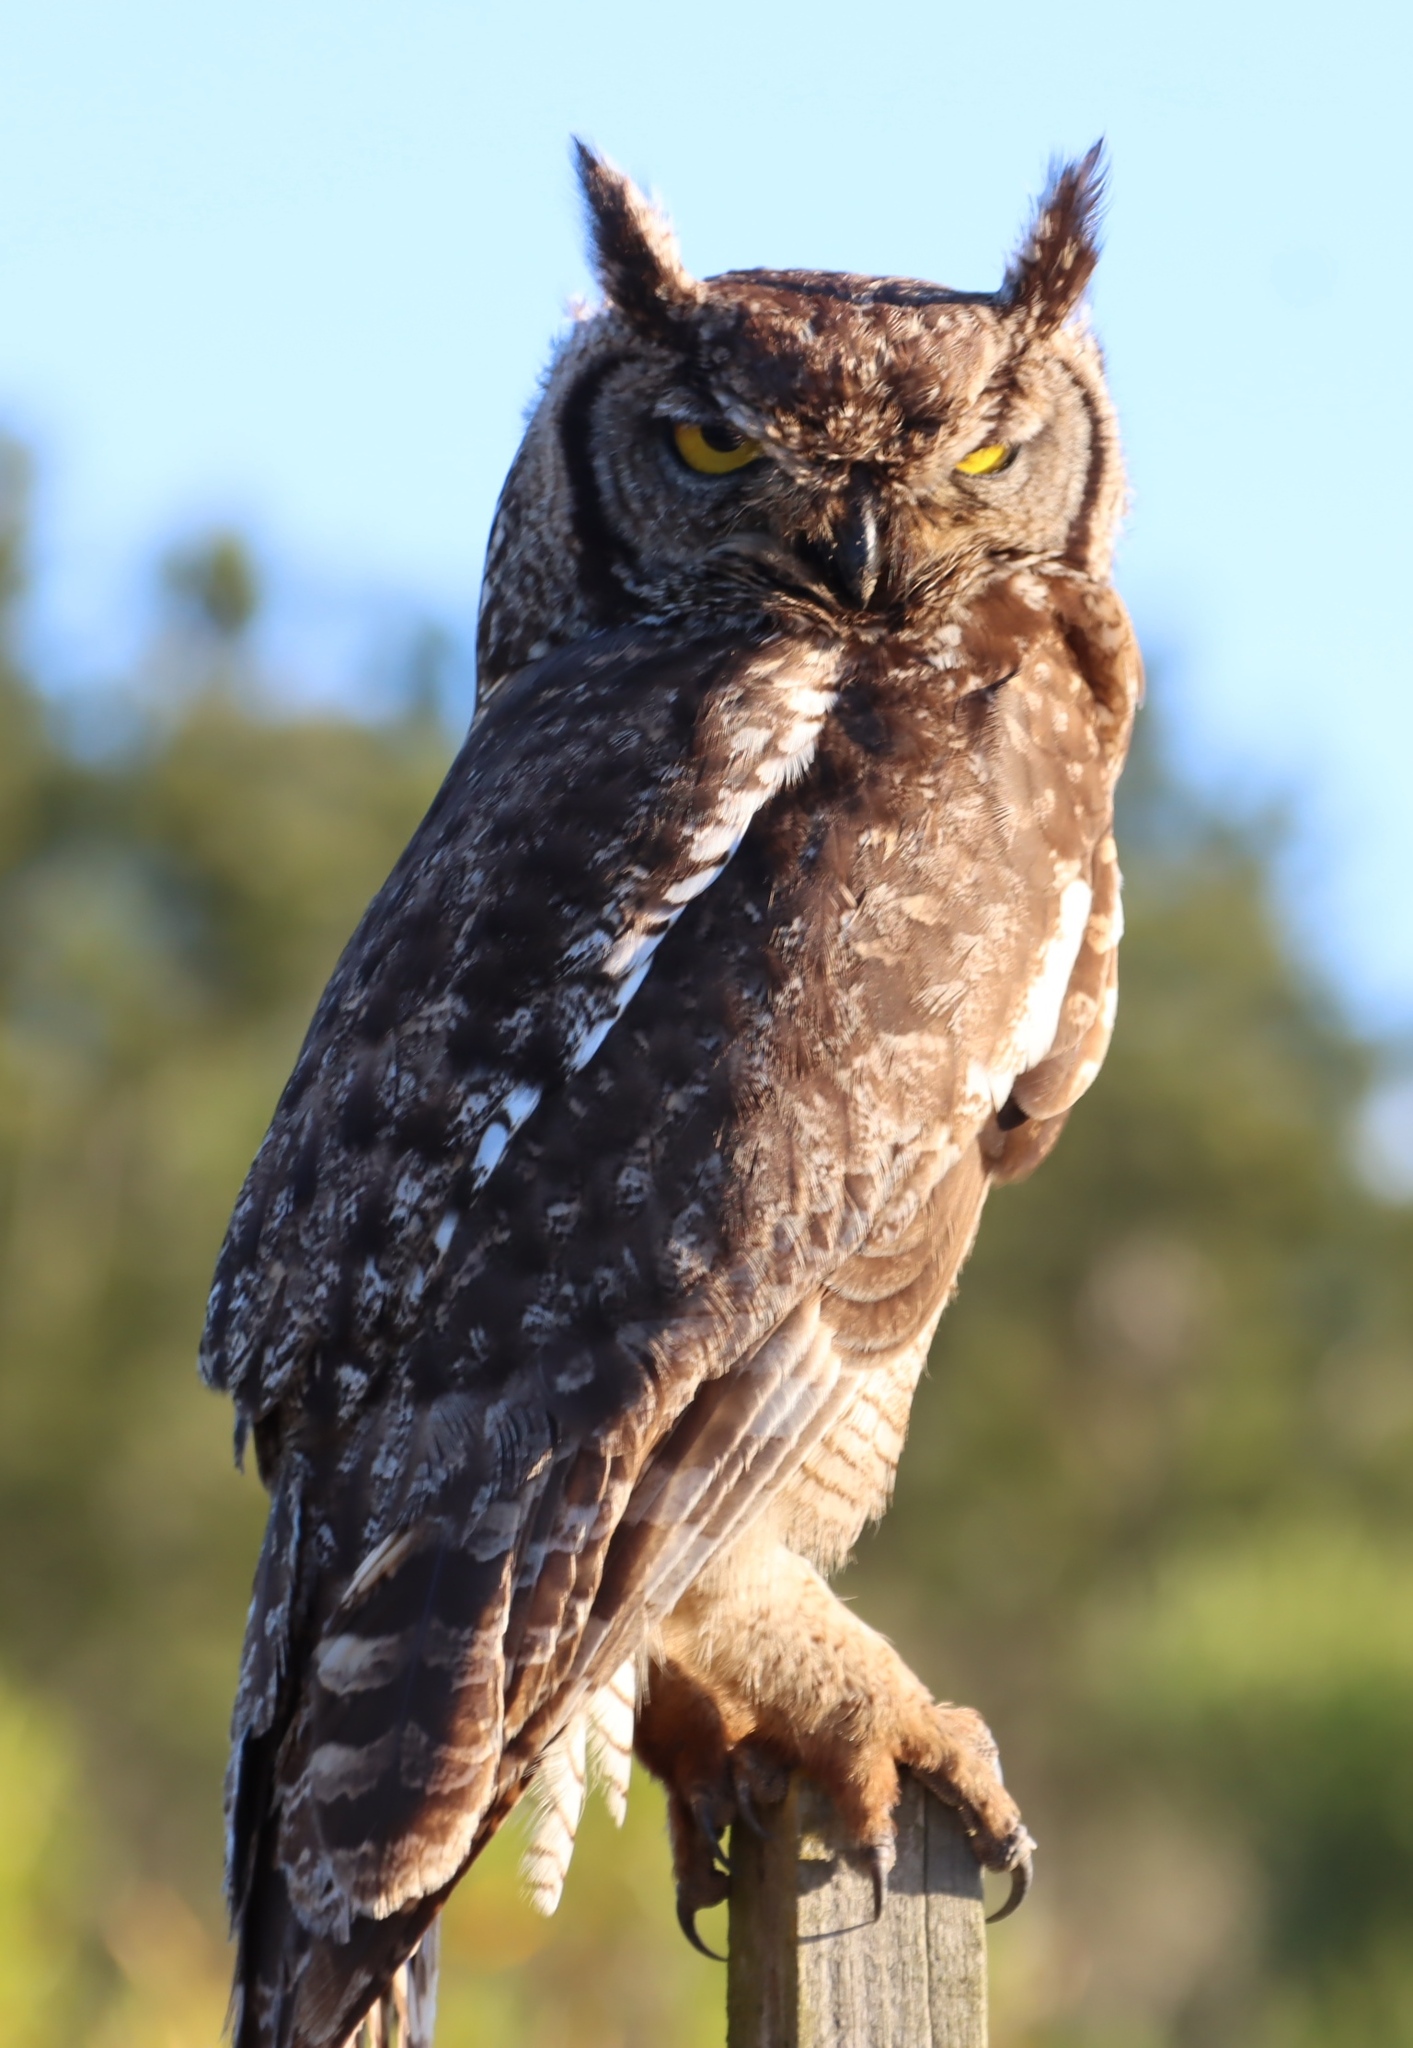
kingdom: Animalia
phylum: Chordata
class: Aves
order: Strigiformes
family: Strigidae
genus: Bubo
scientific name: Bubo africanus
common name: Spotted eagle-owl
